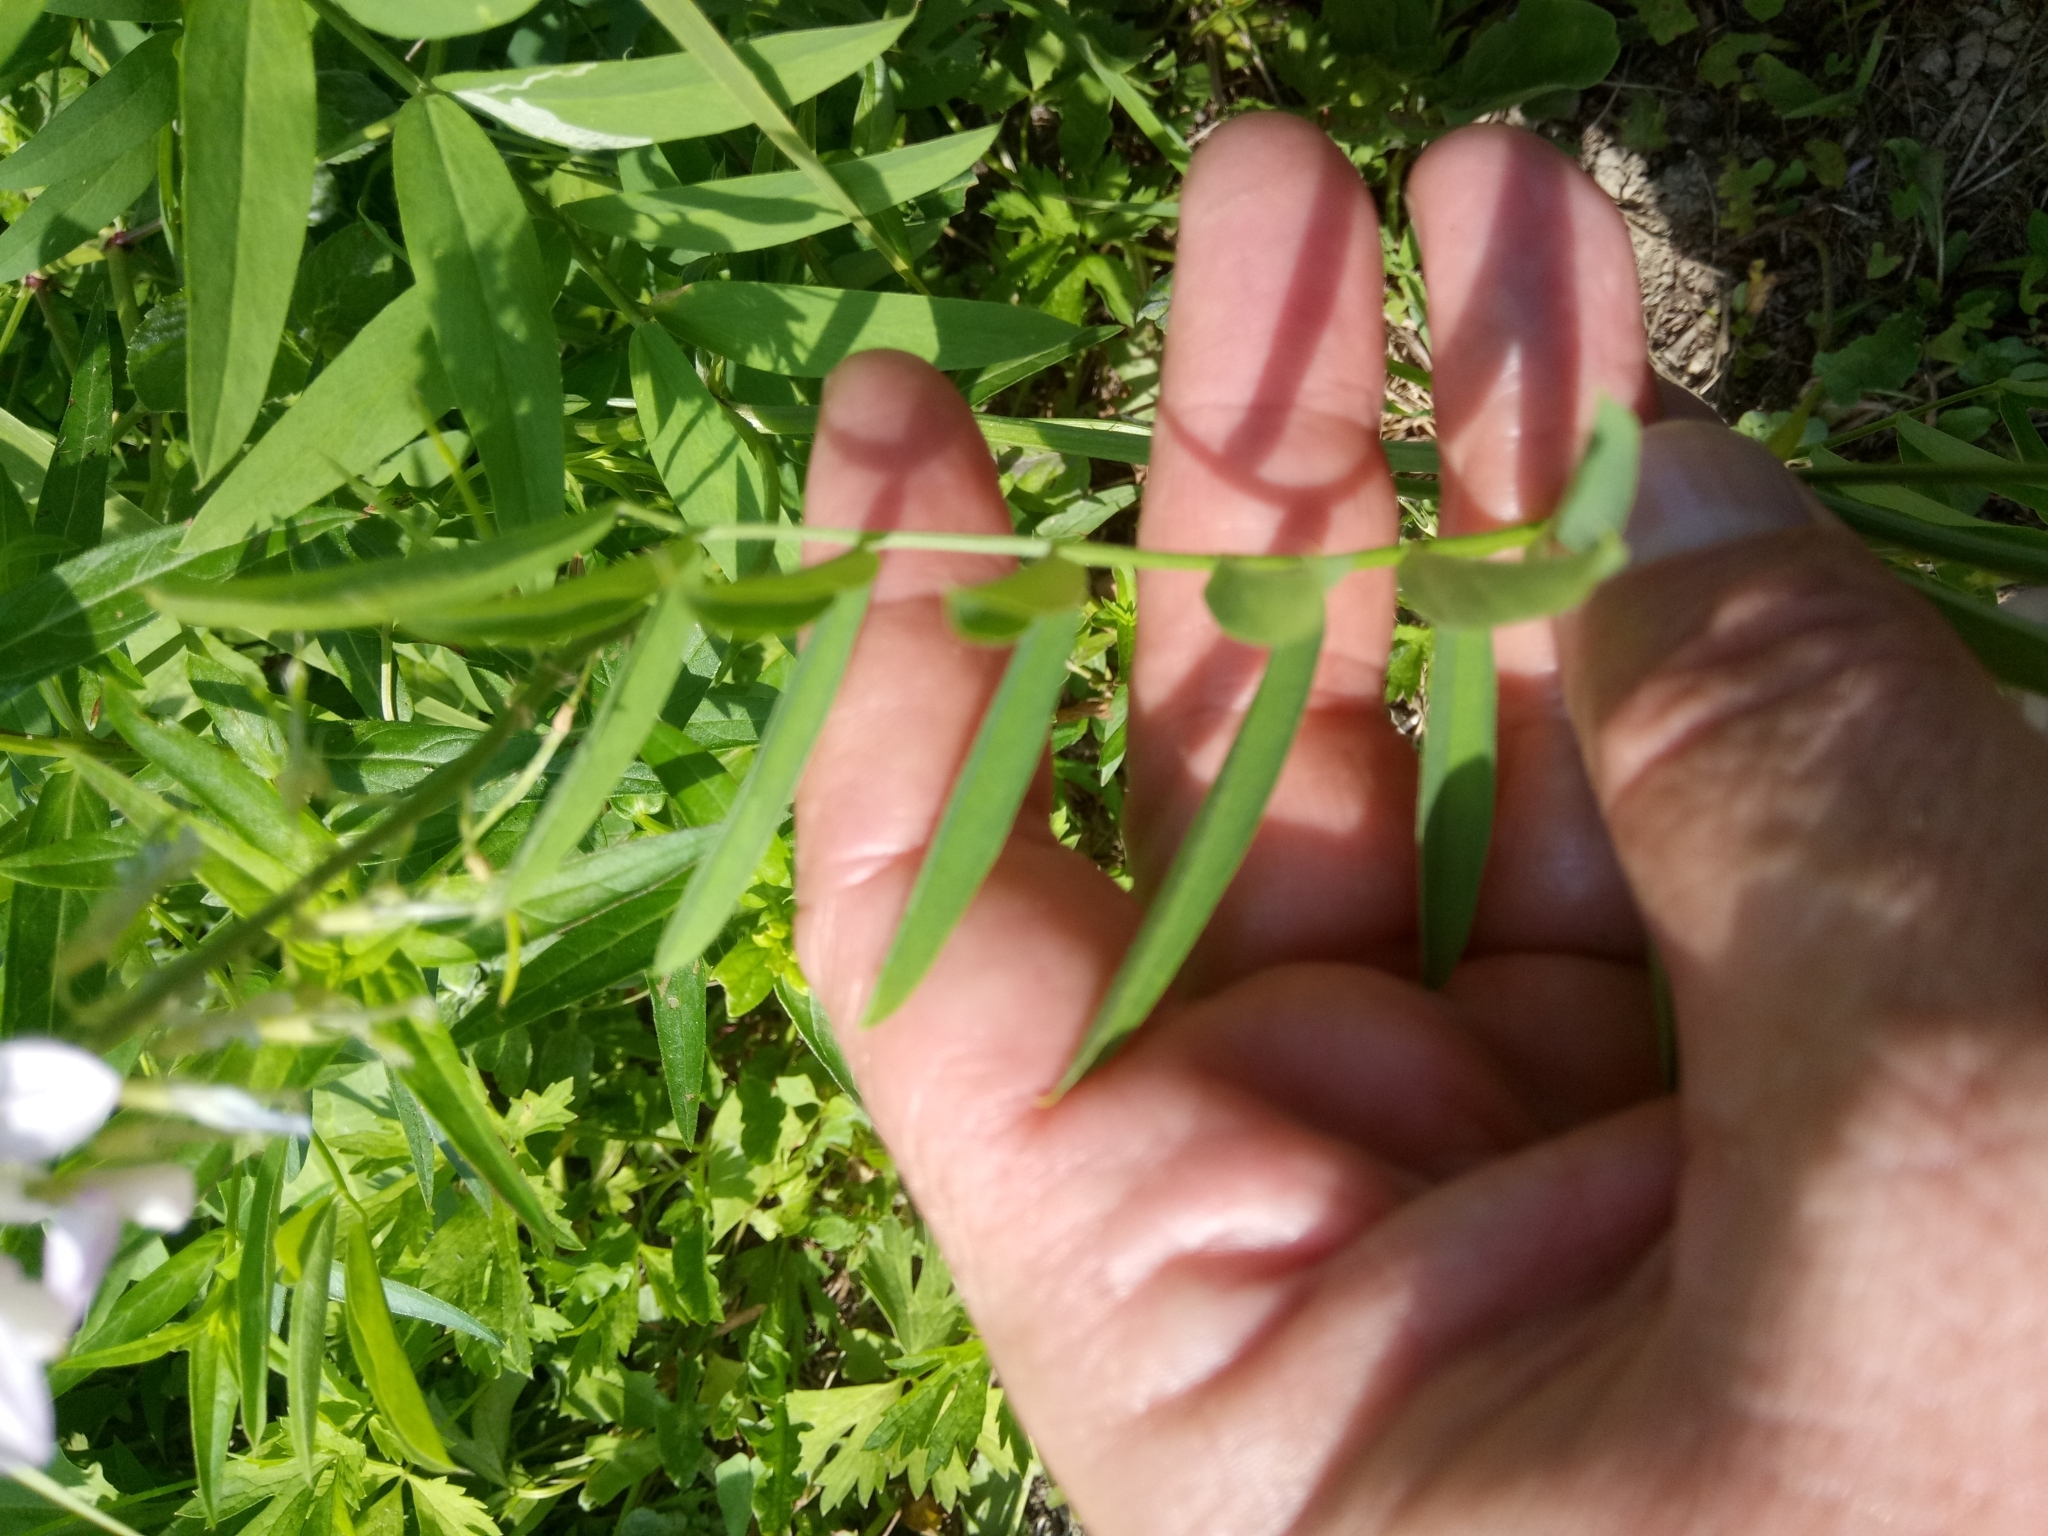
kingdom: Plantae
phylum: Tracheophyta
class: Magnoliopsida
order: Fabales
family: Fabaceae
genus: Galega
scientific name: Galega officinalis
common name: Goat's-rue
